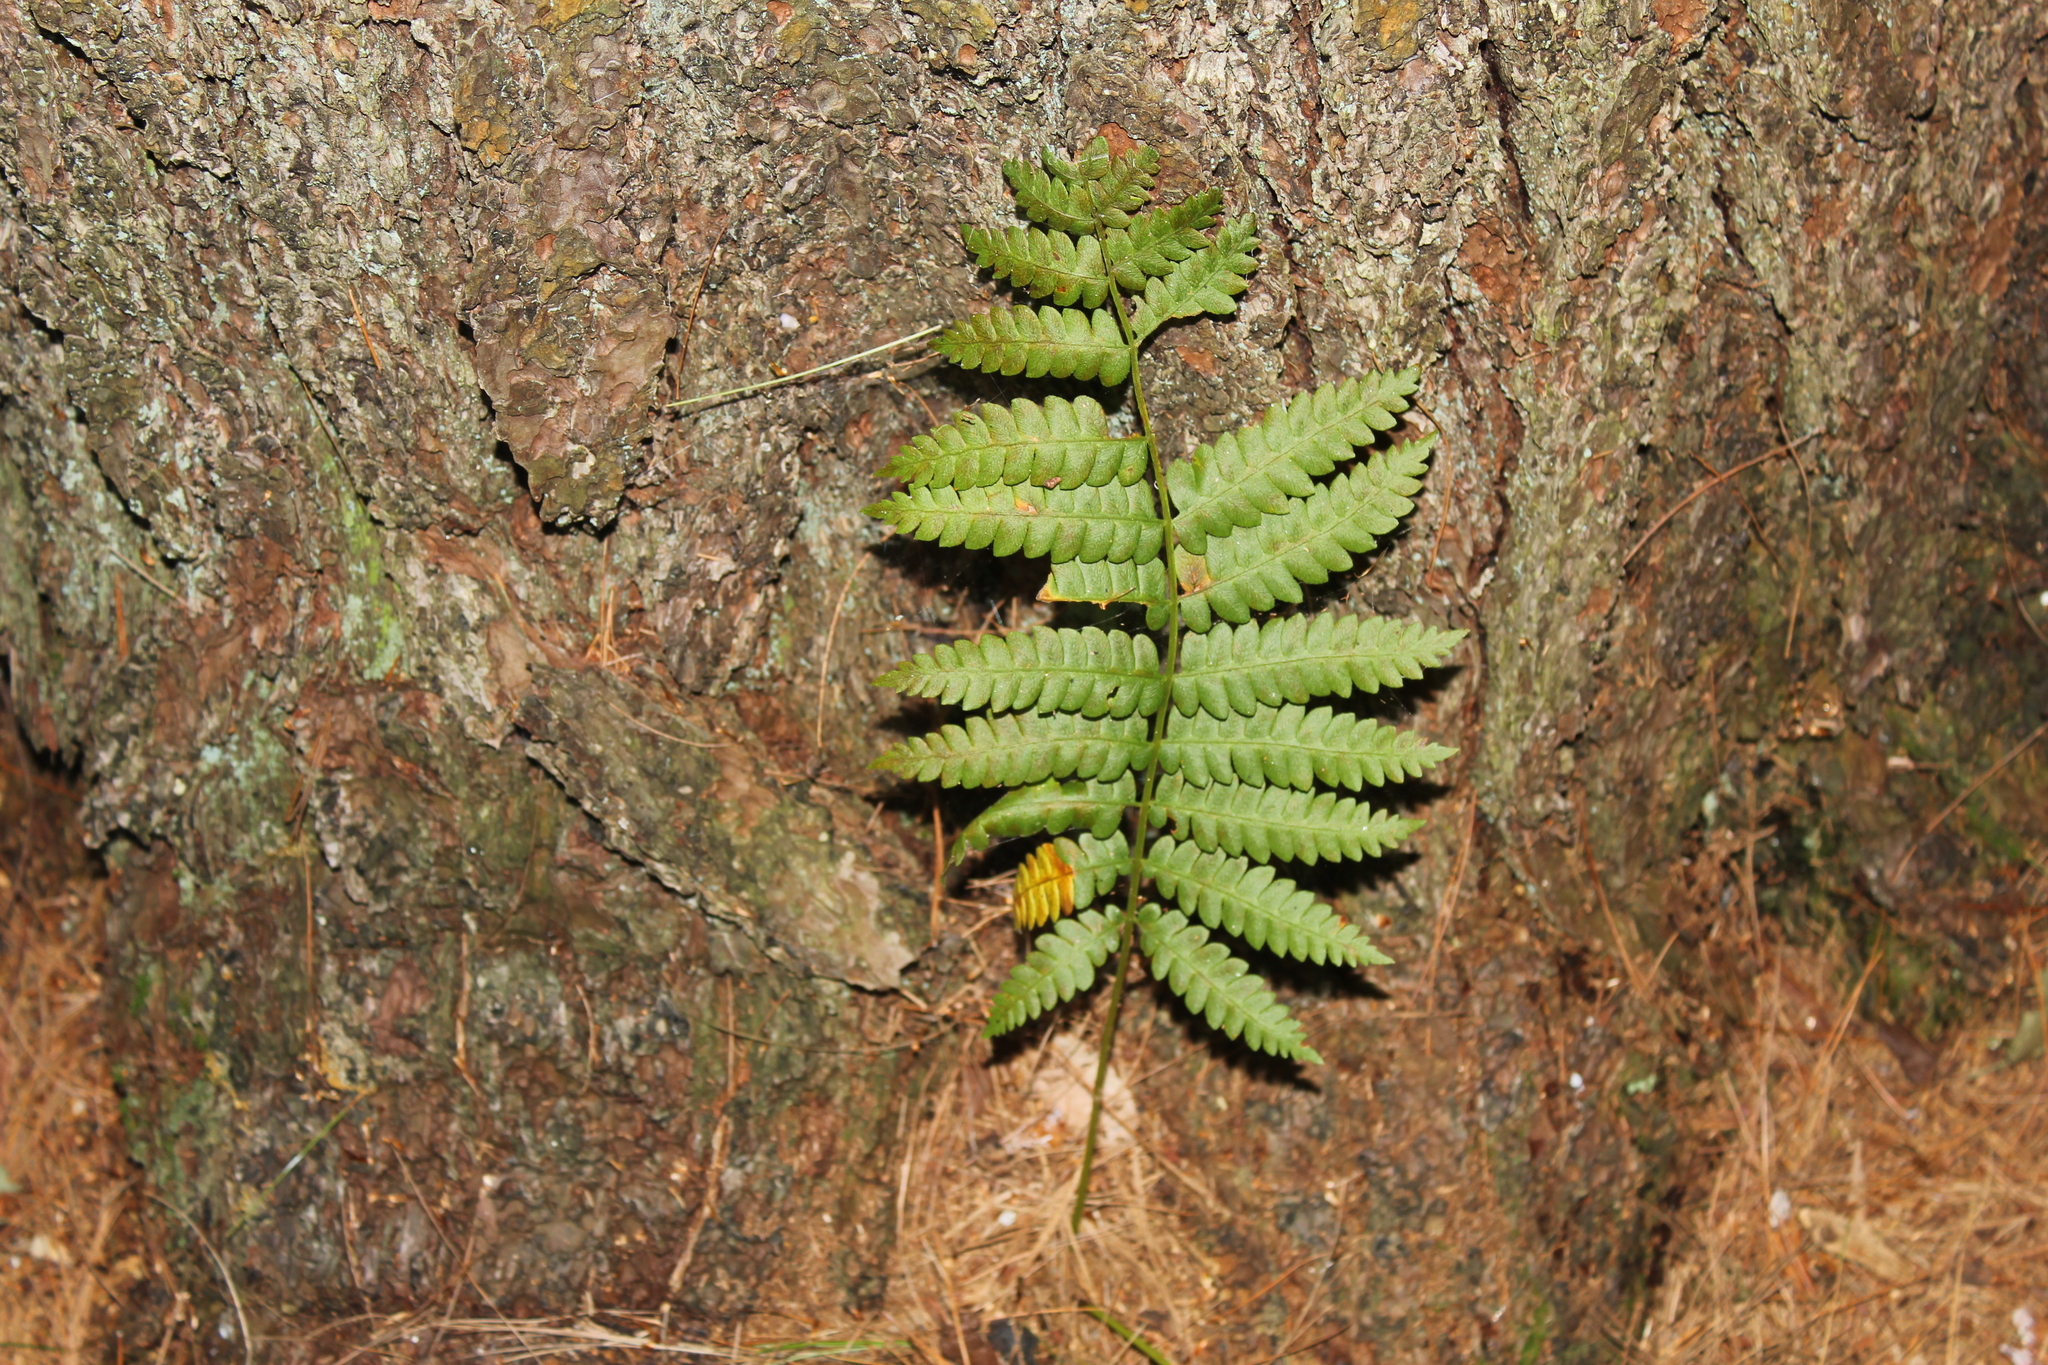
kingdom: Plantae
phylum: Tracheophyta
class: Polypodiopsida
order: Osmundales
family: Osmundaceae
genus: Osmundastrum
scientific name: Osmundastrum cinnamomeum
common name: Cinnamon fern
